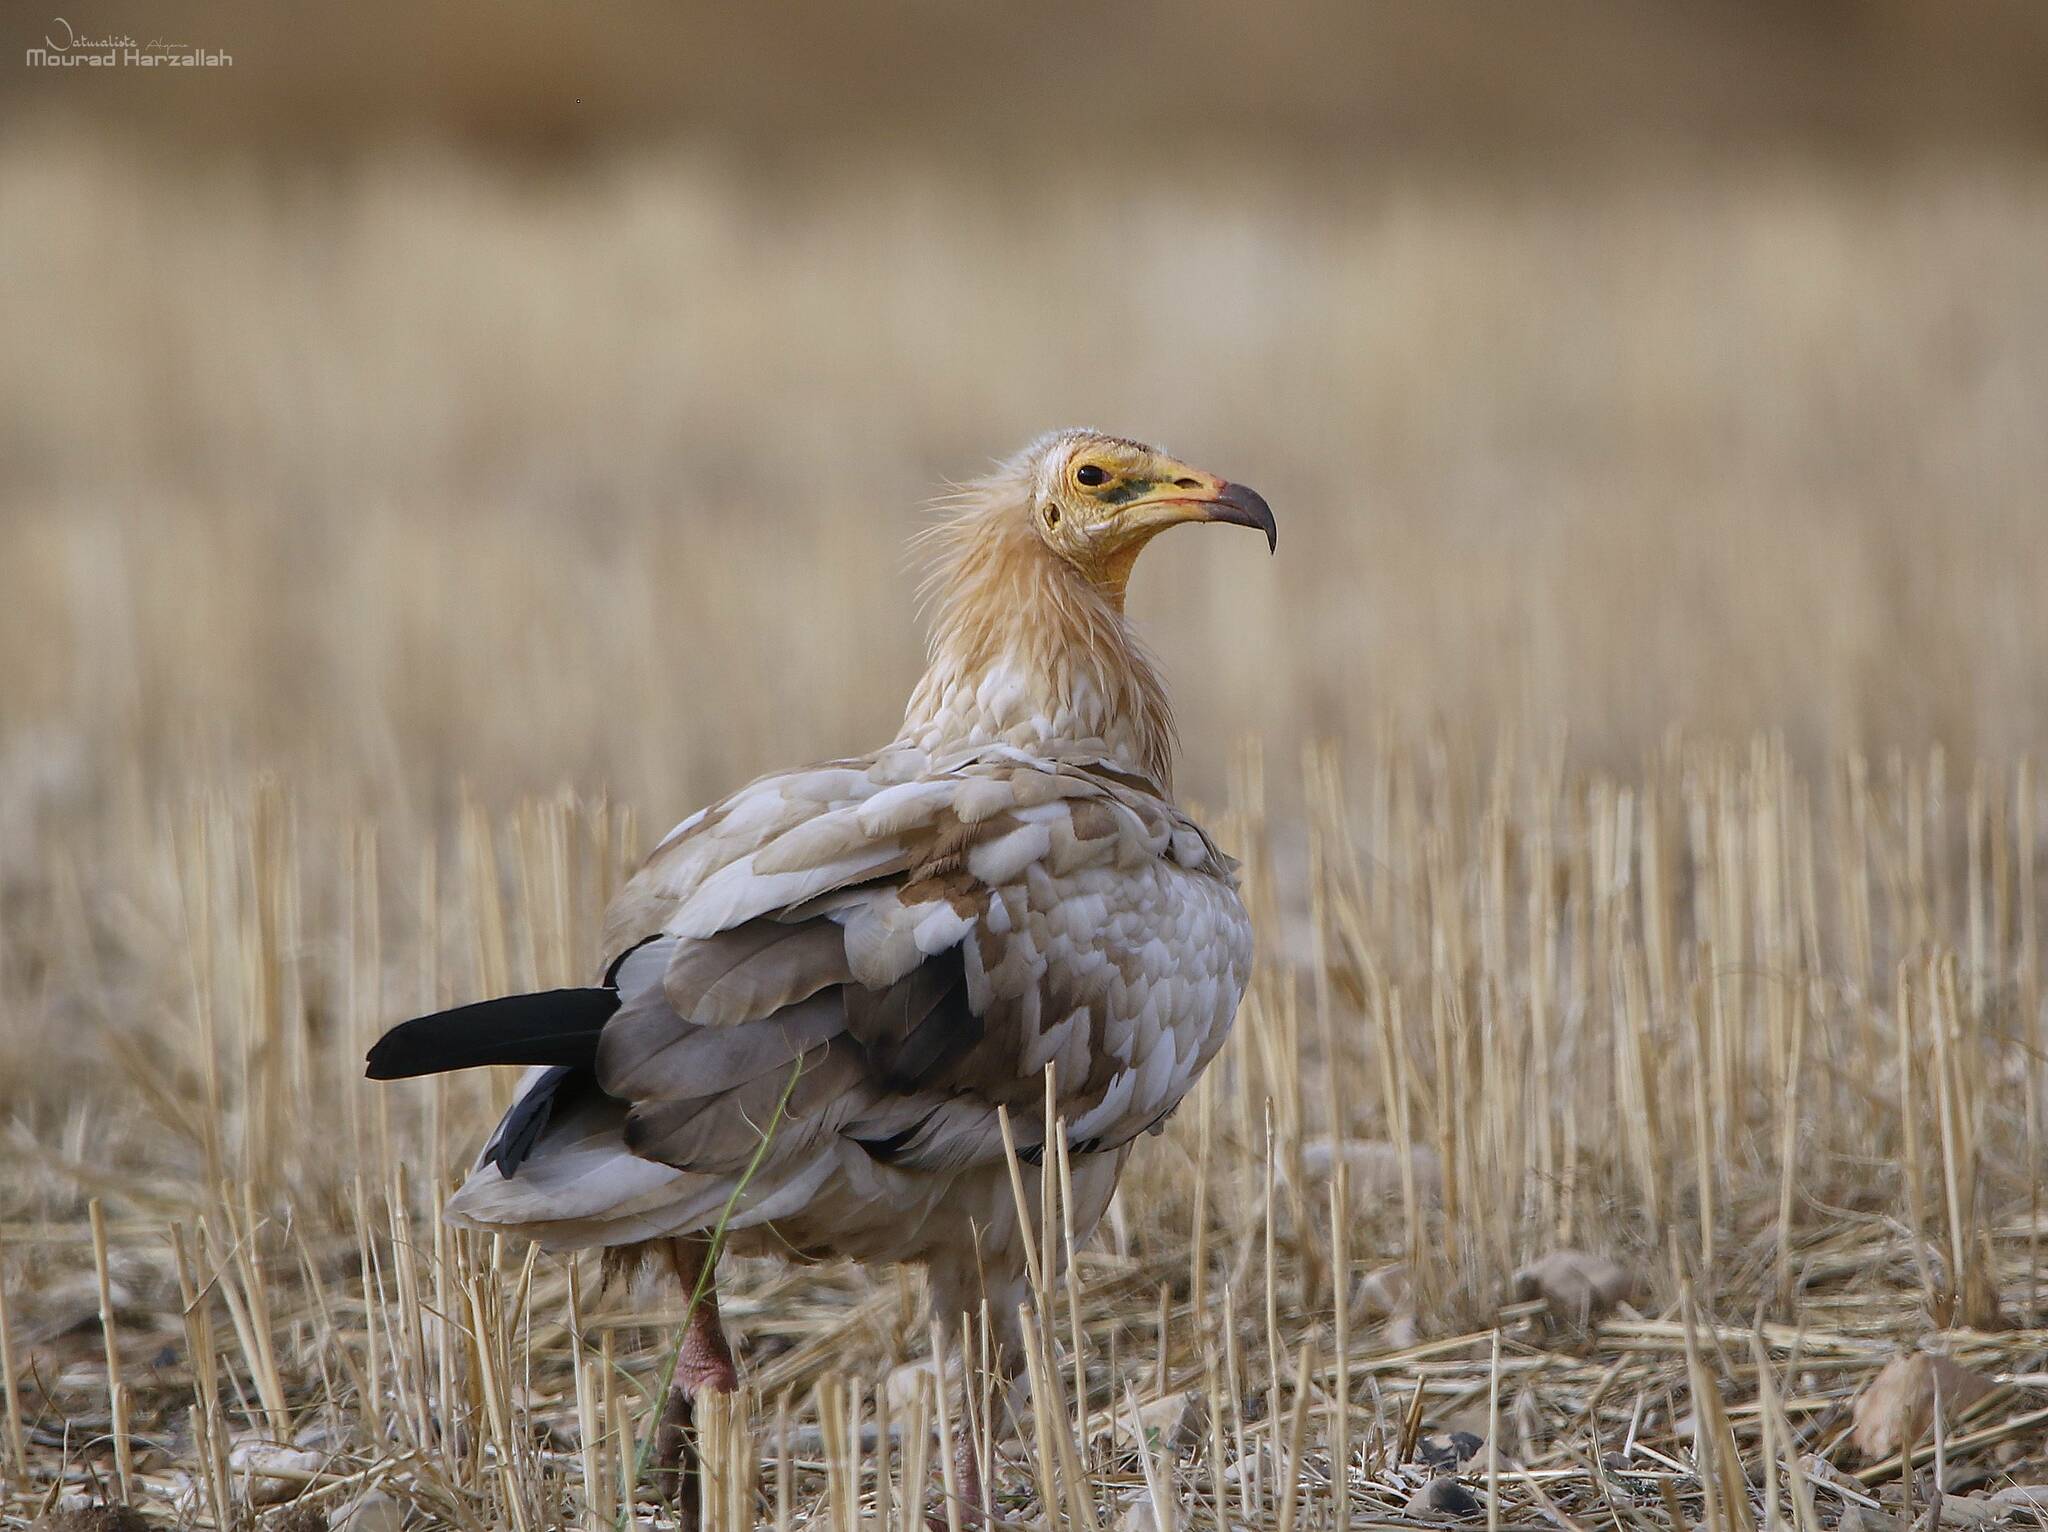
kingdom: Animalia
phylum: Chordata
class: Aves
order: Accipitriformes
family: Accipitridae
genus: Neophron
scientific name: Neophron percnopterus
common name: Egyptian vulture
